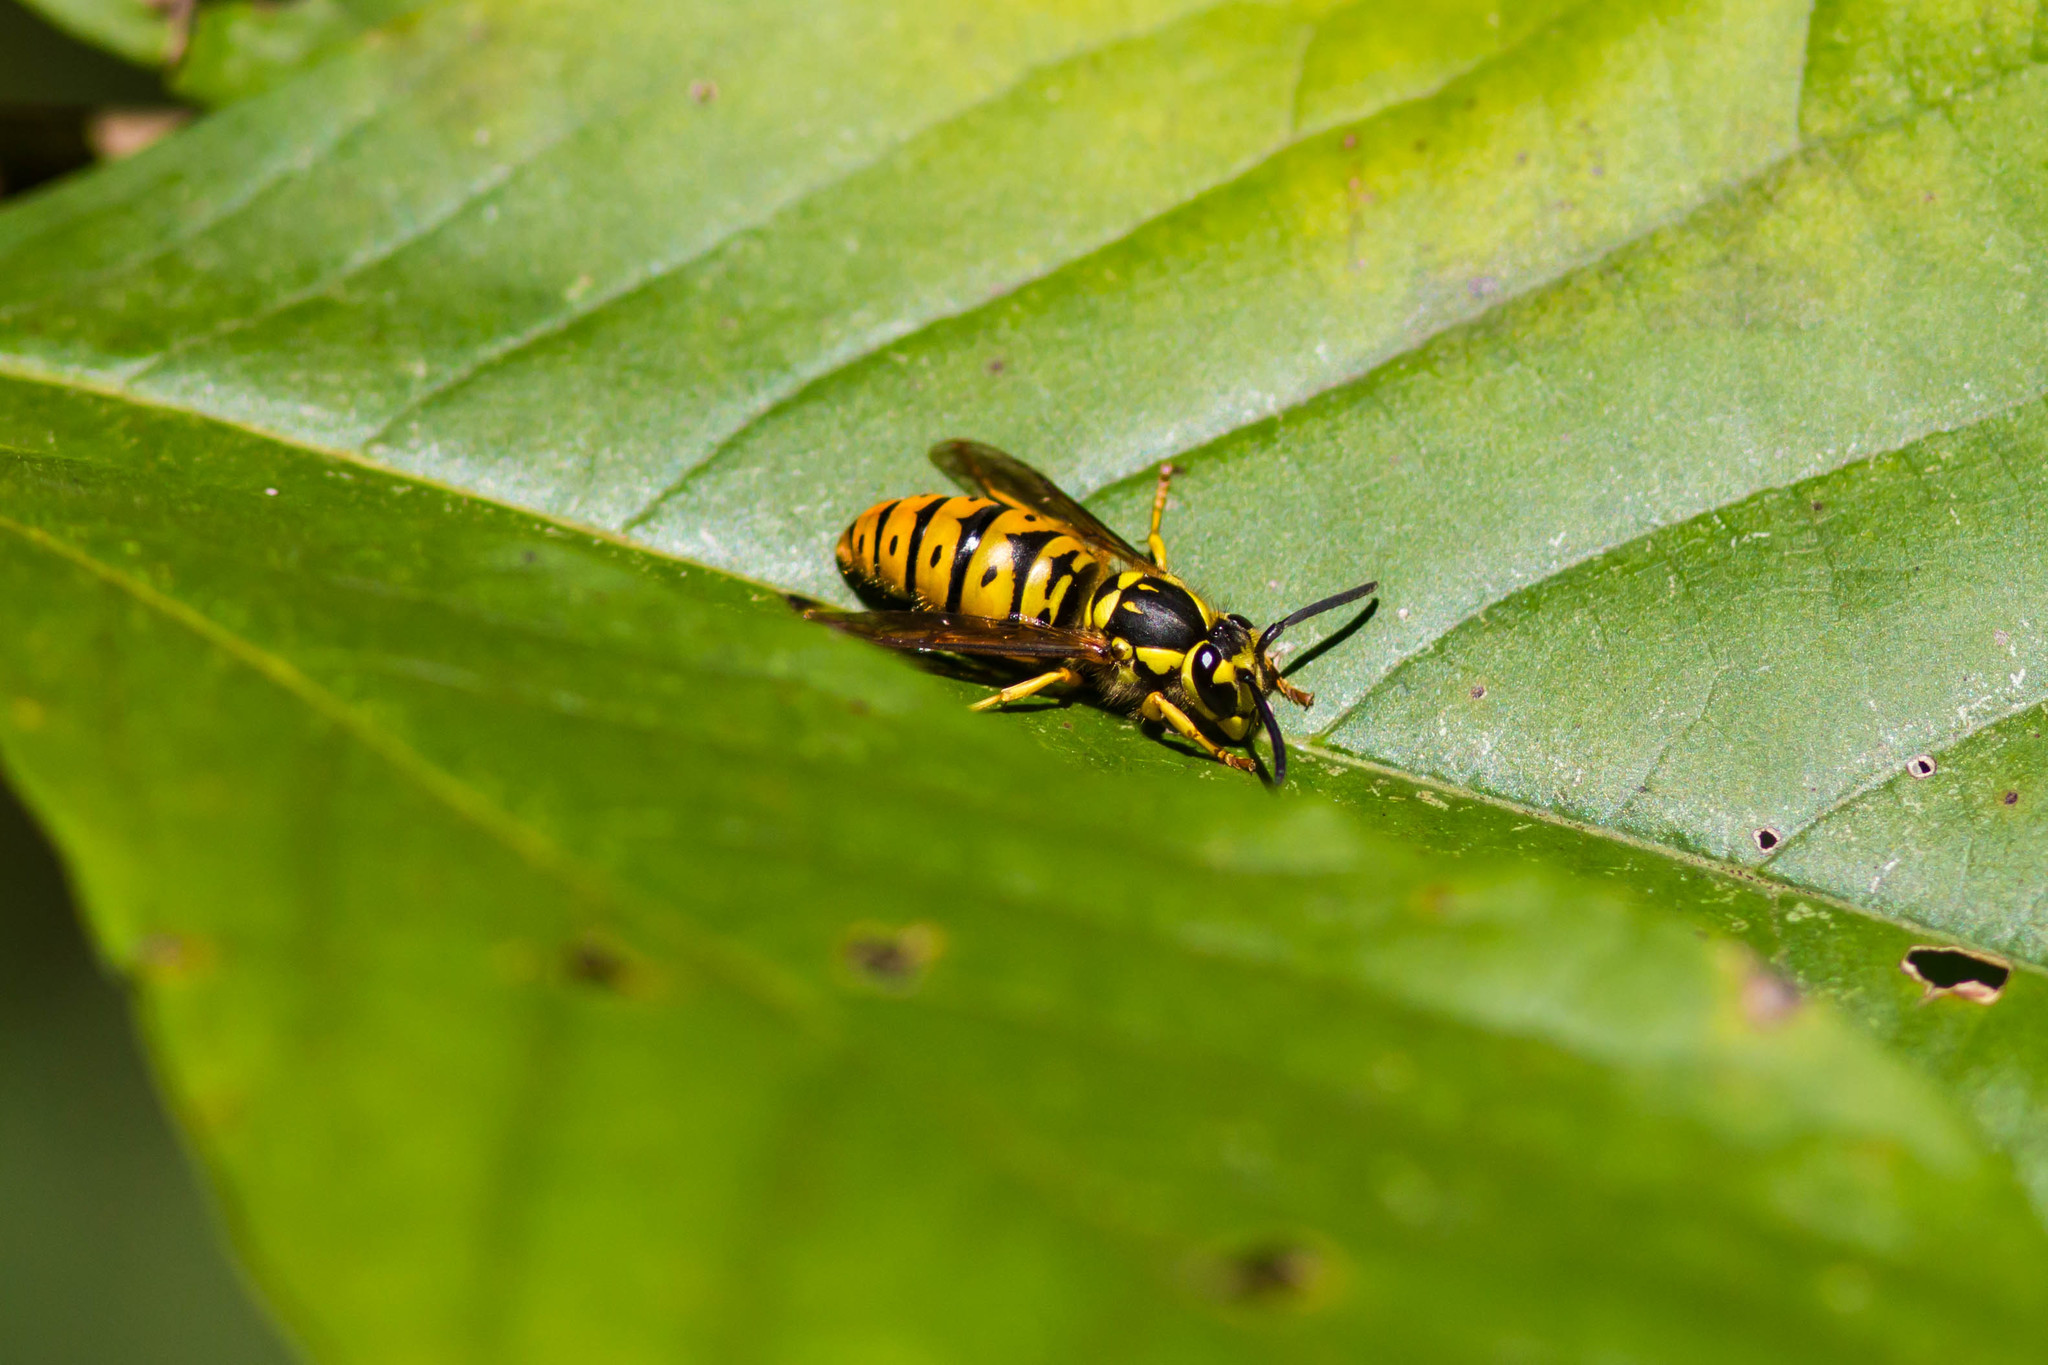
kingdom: Animalia
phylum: Arthropoda
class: Insecta
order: Hymenoptera
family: Vespidae
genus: Vespula
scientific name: Vespula maculifrons
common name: Eastern yellowjacket
